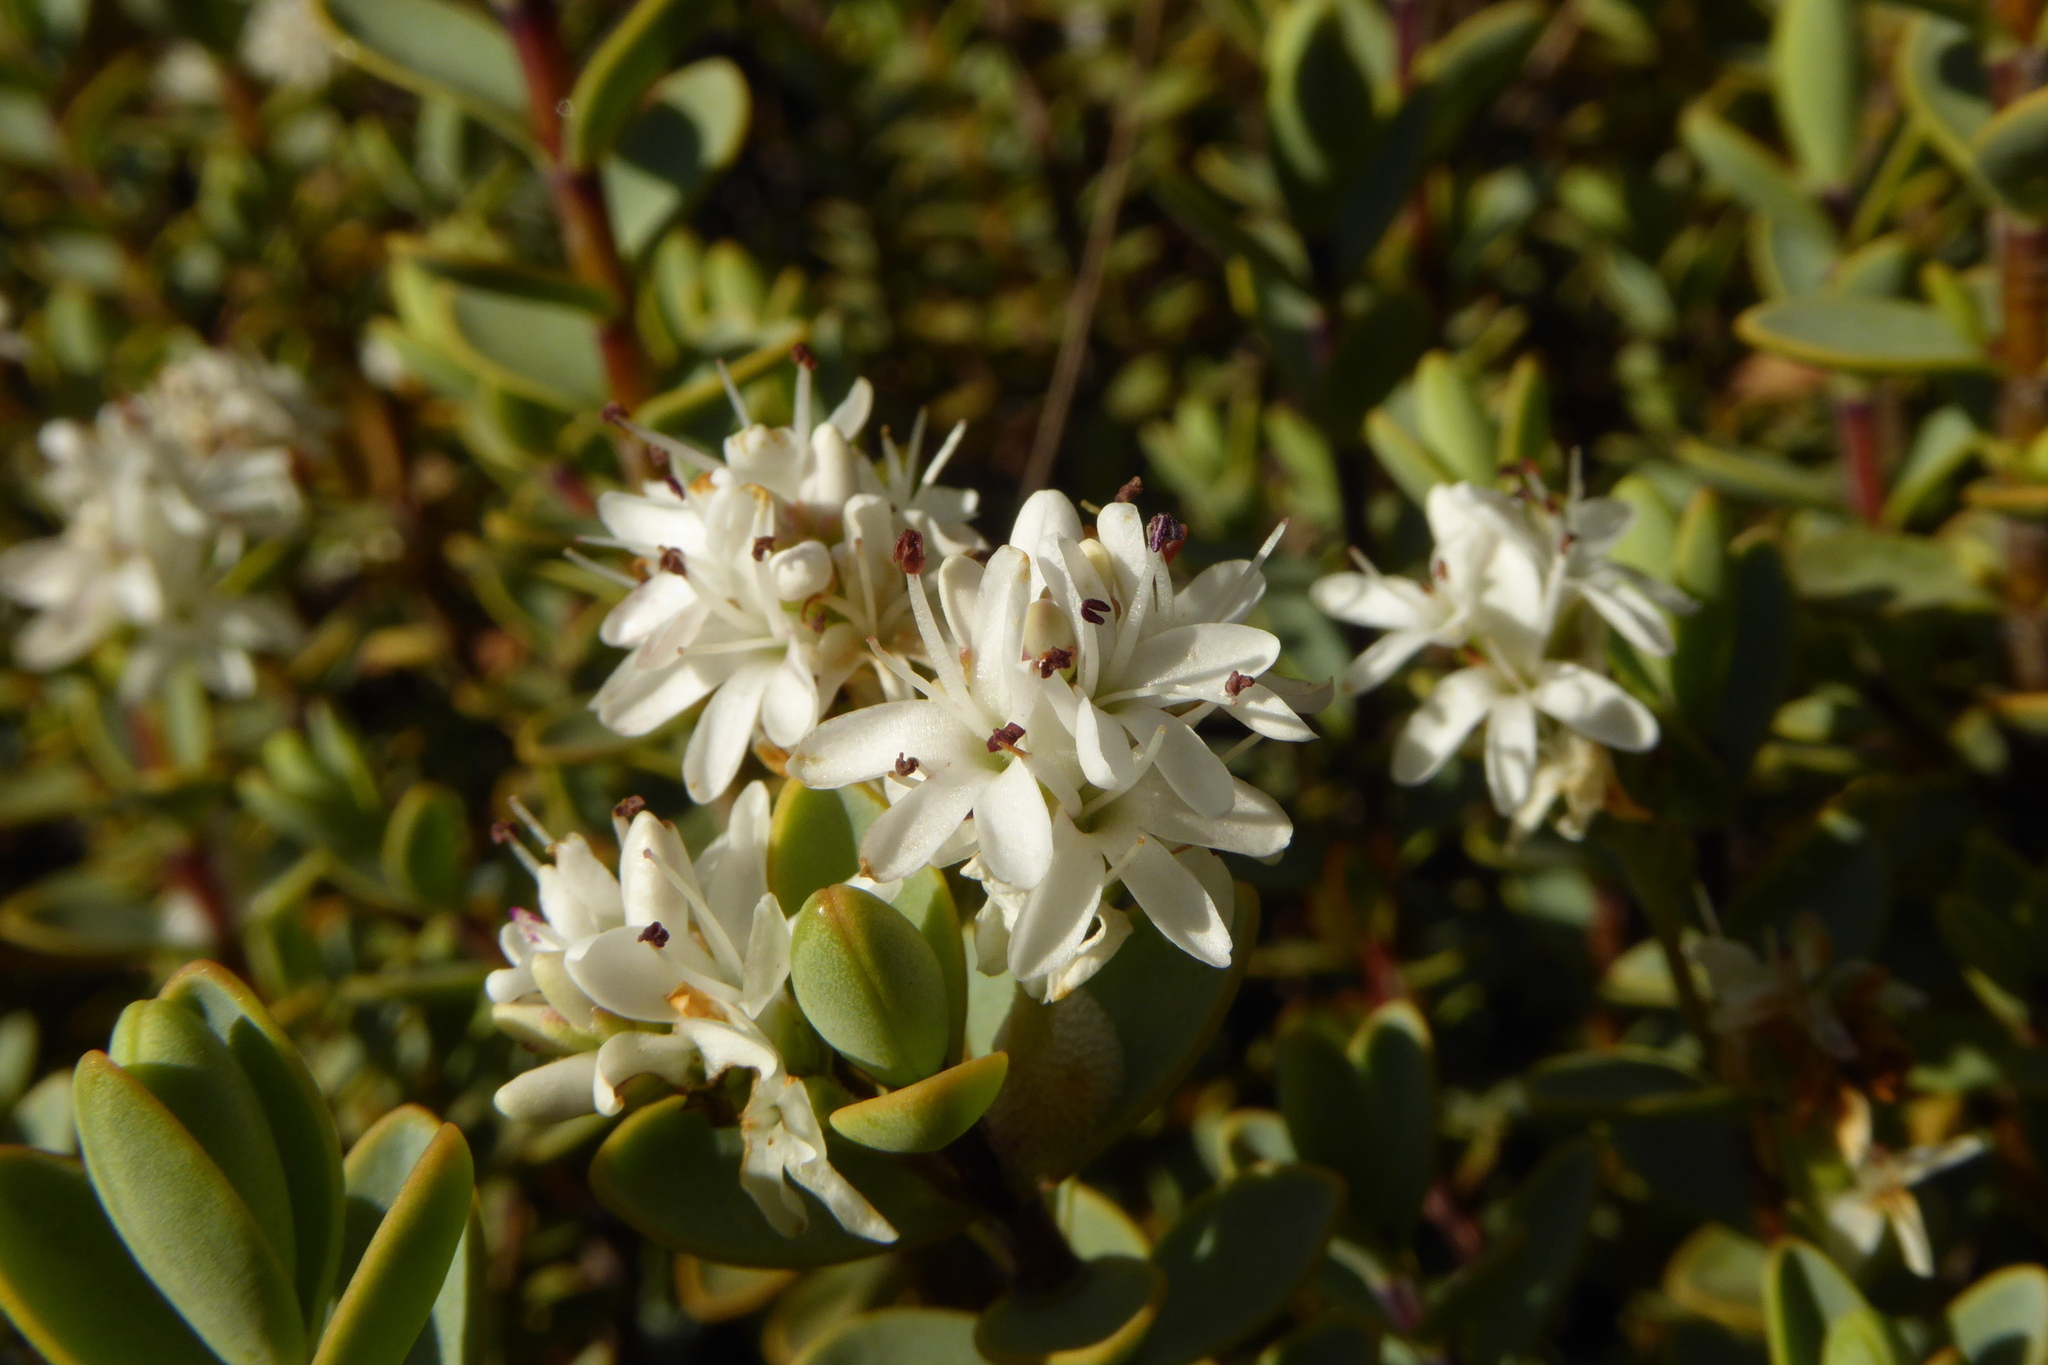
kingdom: Plantae
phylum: Tracheophyta
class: Magnoliopsida
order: Lamiales
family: Plantaginaceae
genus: Veronica
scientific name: Veronica pinguifolia
